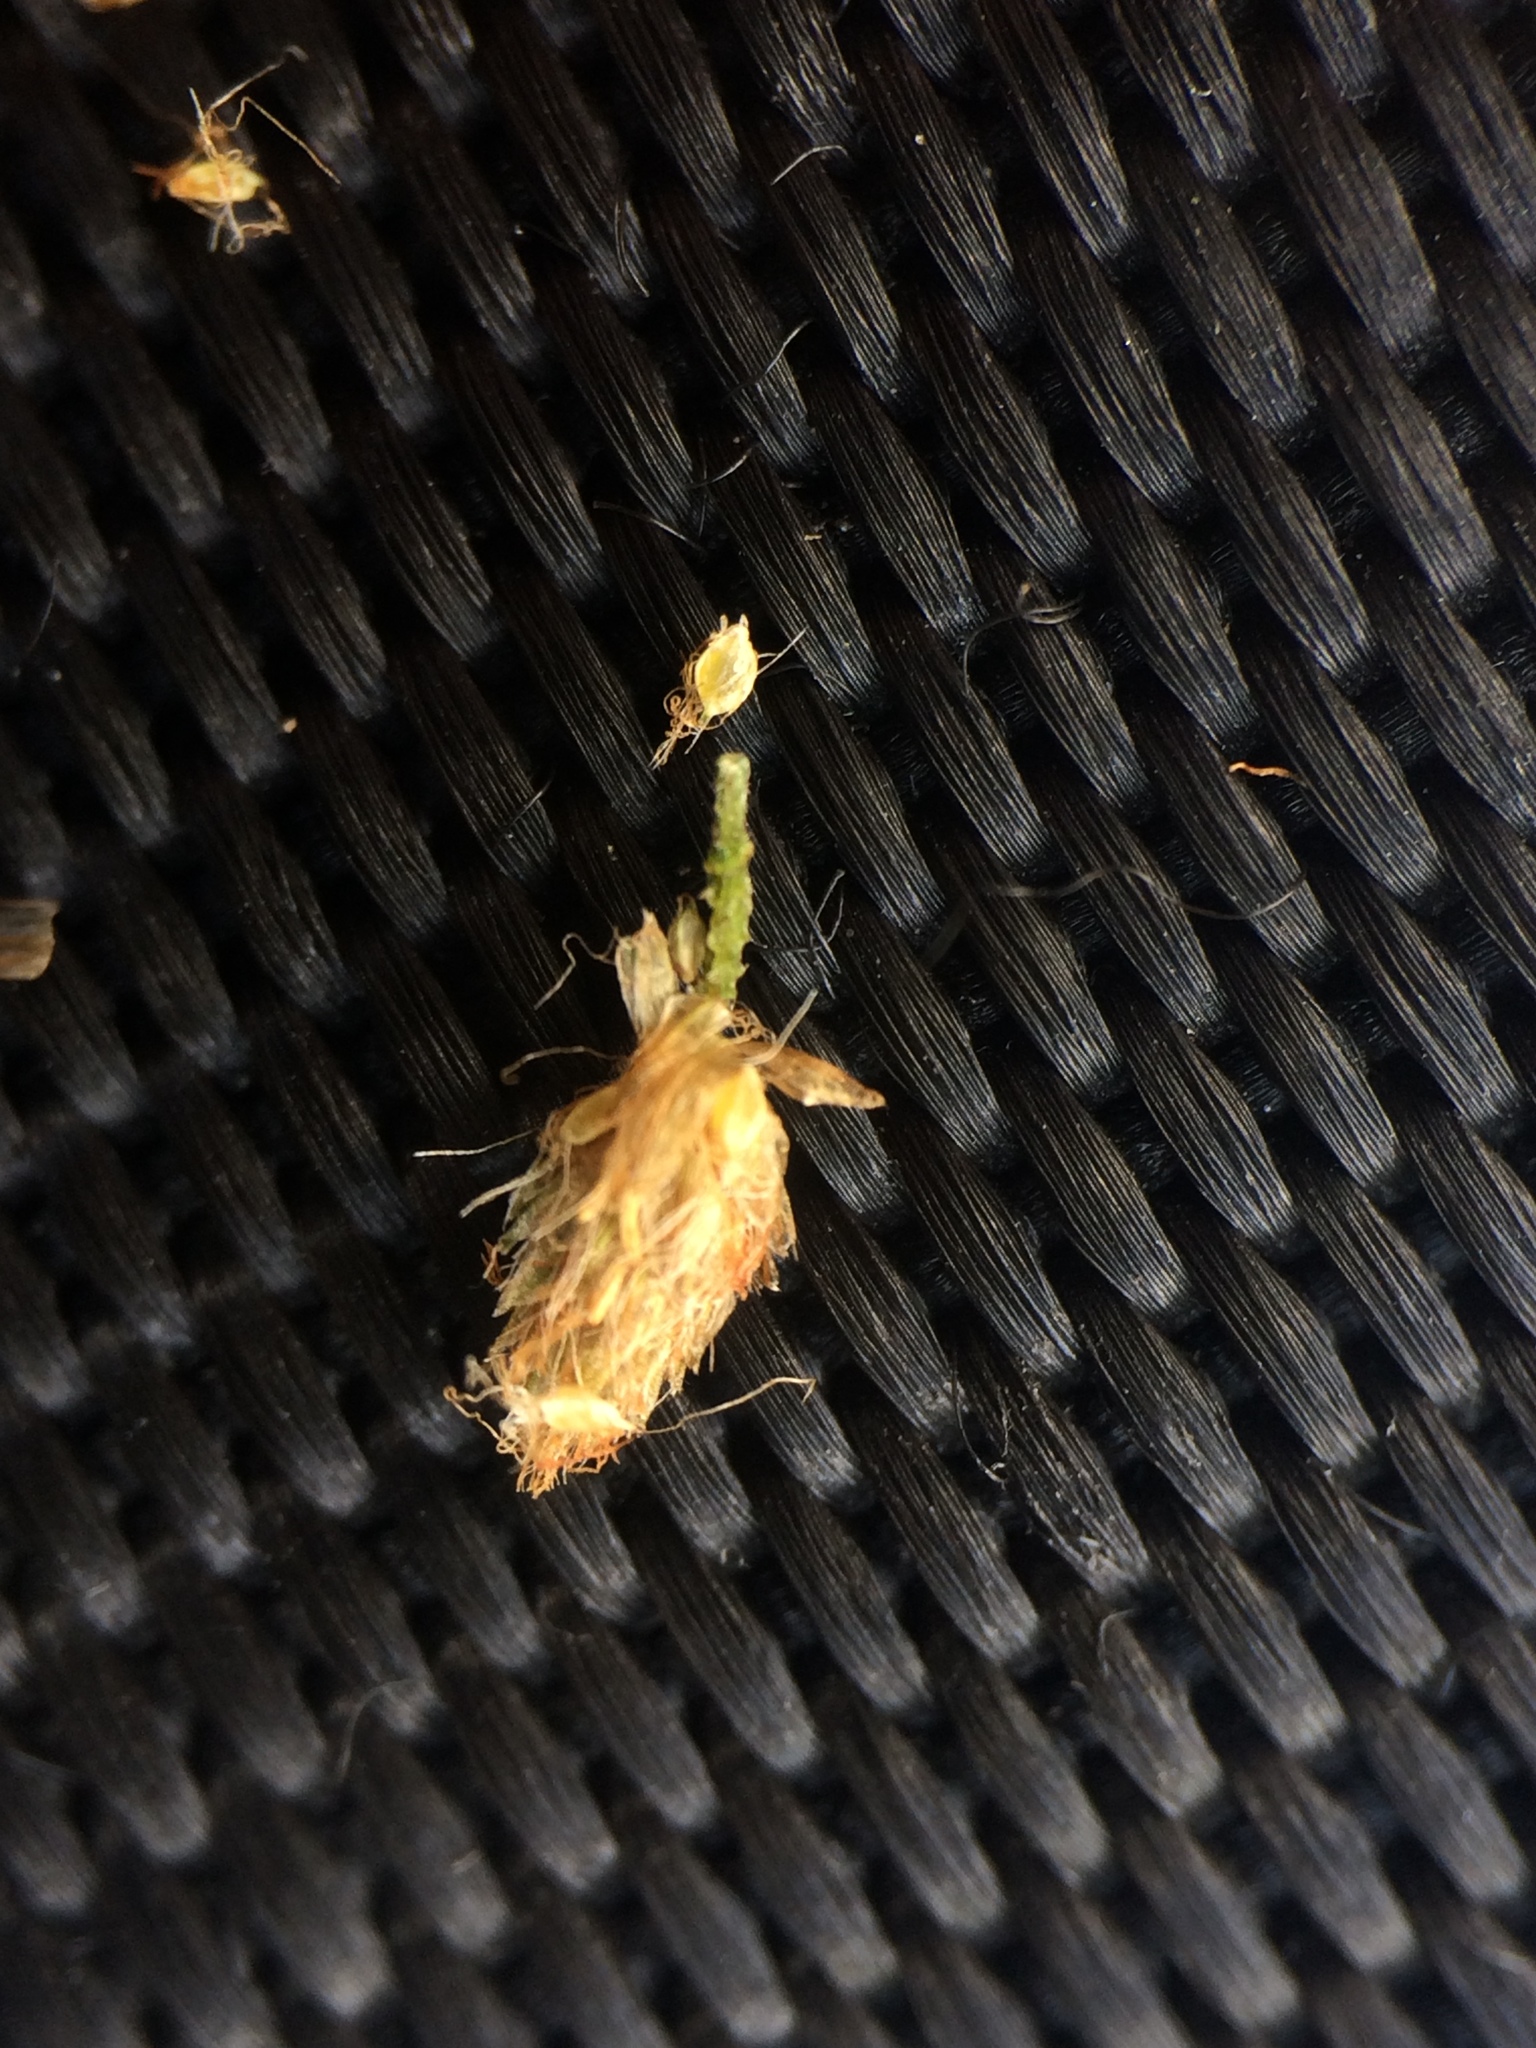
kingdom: Plantae
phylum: Tracheophyta
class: Liliopsida
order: Poales
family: Cyperaceae
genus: Scirpus
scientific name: Scirpus atrocinctus
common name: Black-girdled bulrush
